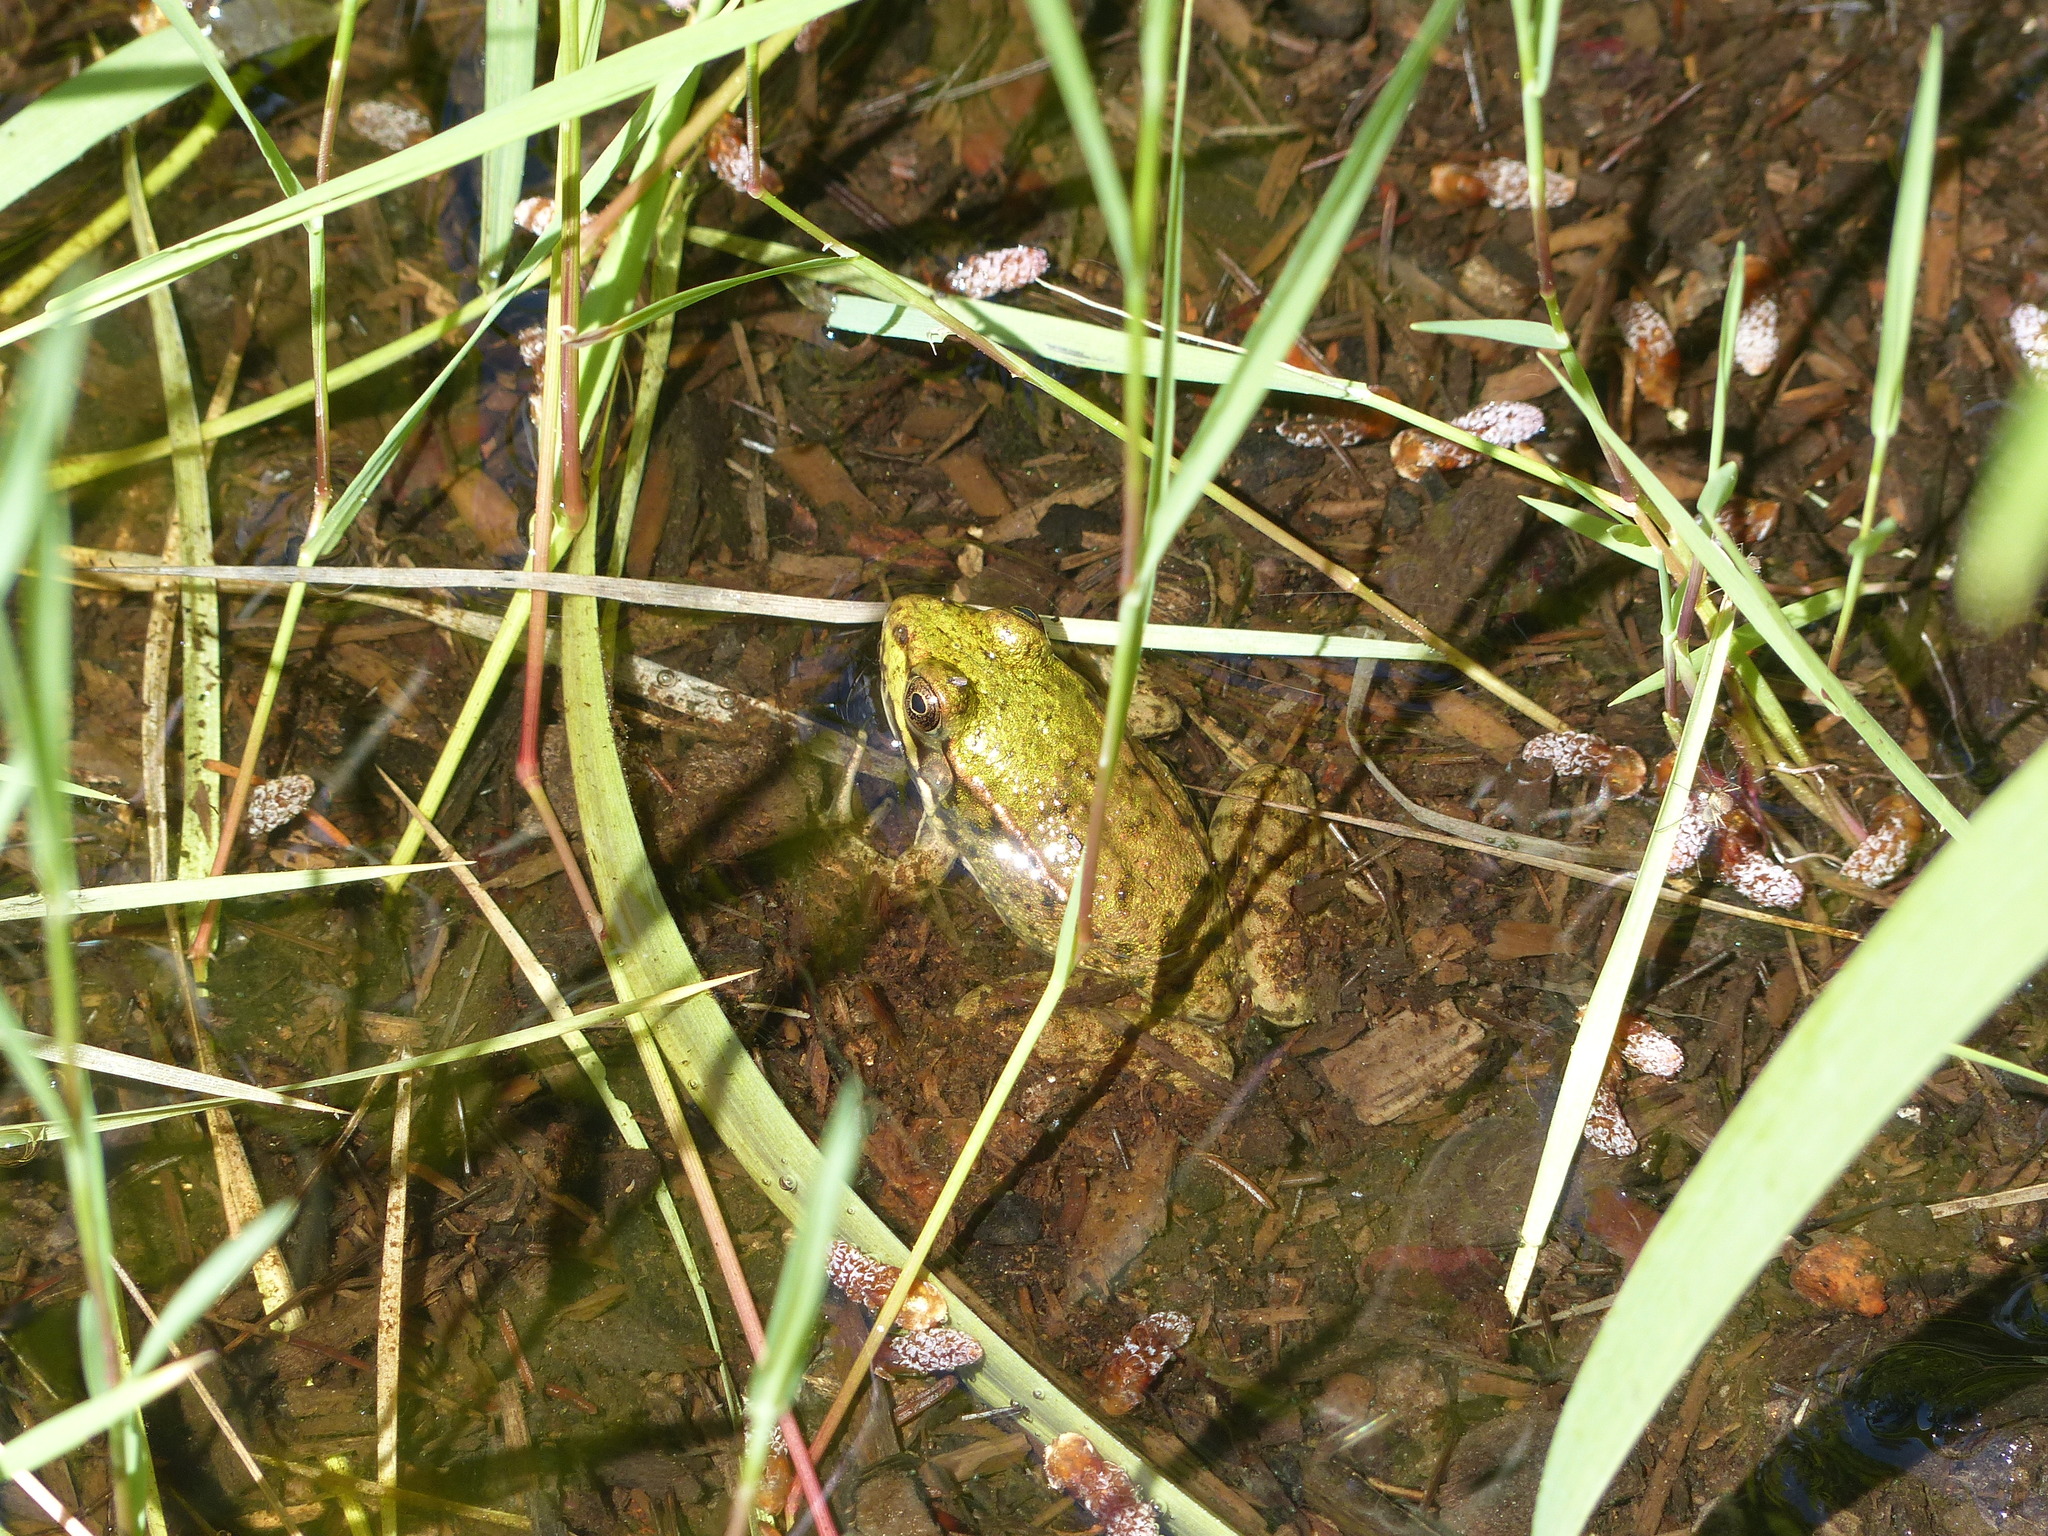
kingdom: Animalia
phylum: Chordata
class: Amphibia
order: Anura
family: Ranidae
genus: Lithobates
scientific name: Lithobates clamitans
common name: Green frog
